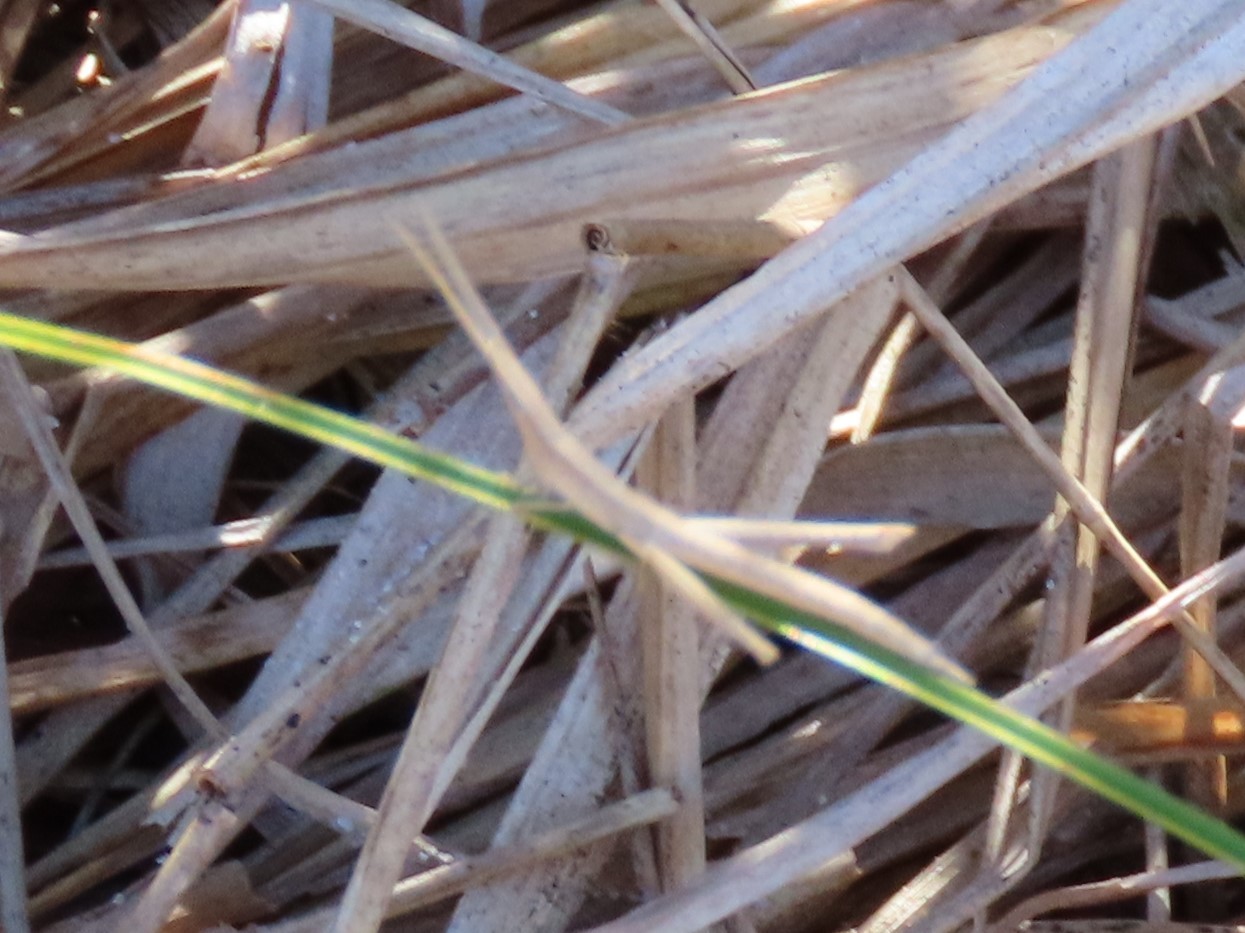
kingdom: Animalia
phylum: Arthropoda
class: Insecta
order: Orthoptera
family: Acrididae
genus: Achurum
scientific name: Achurum carinatum
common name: Long-headed toothpick grasshopper
